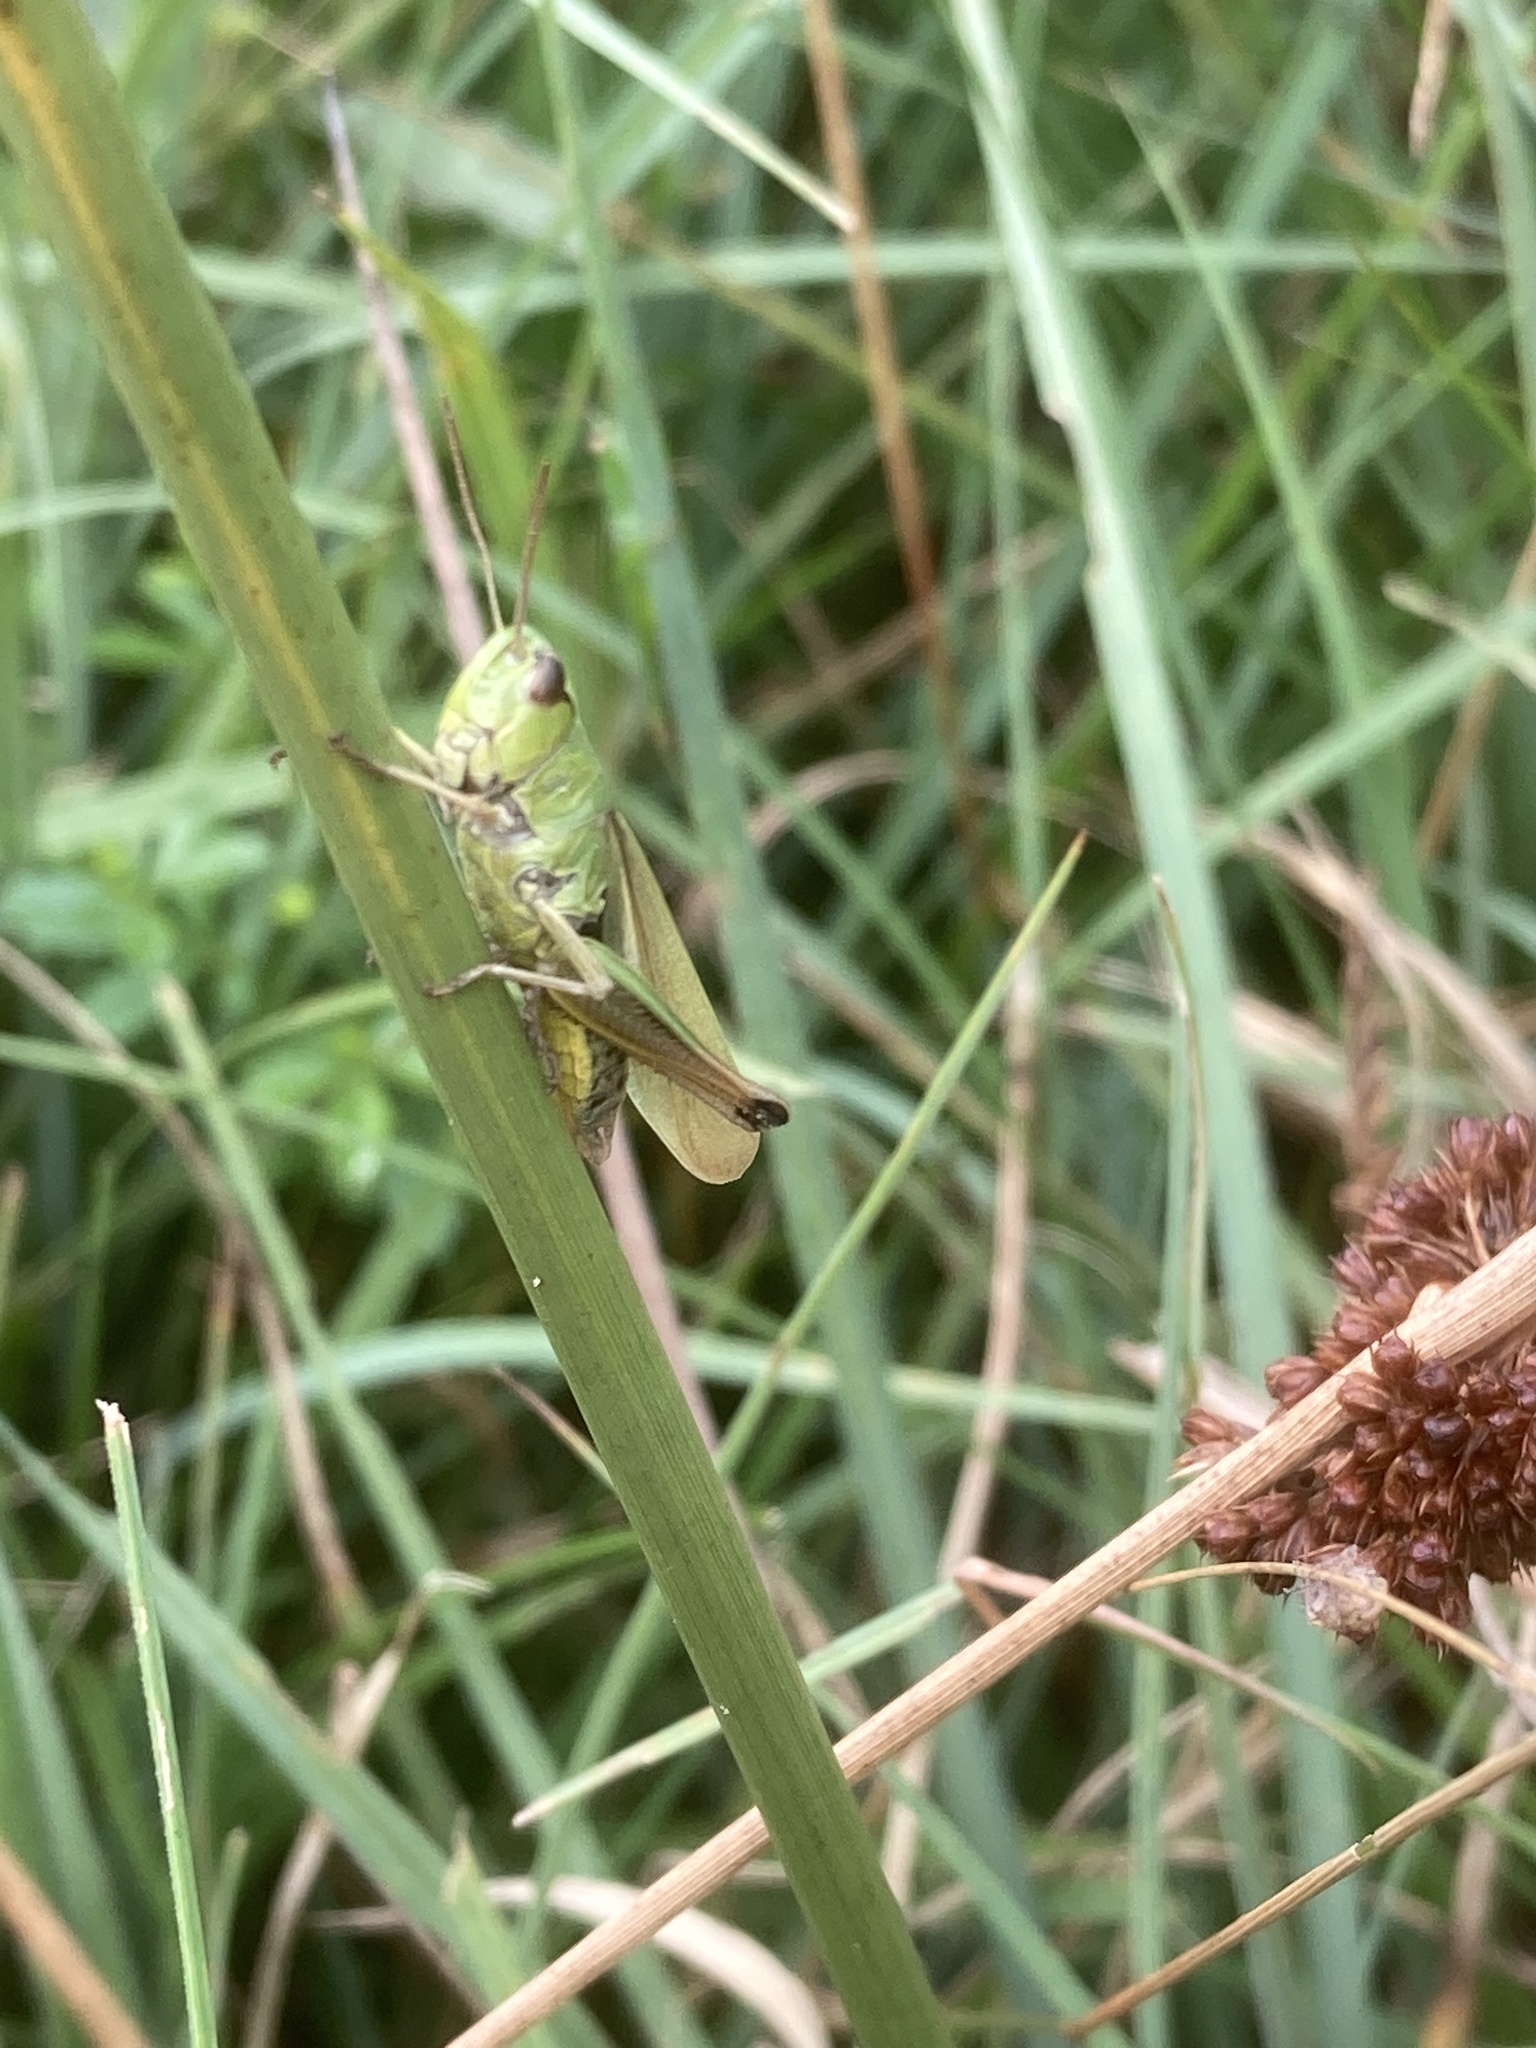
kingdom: Plantae
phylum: Tracheophyta
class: Liliopsida
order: Poales
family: Juncaceae
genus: Juncus
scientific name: Juncus effusus
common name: Soft rush
